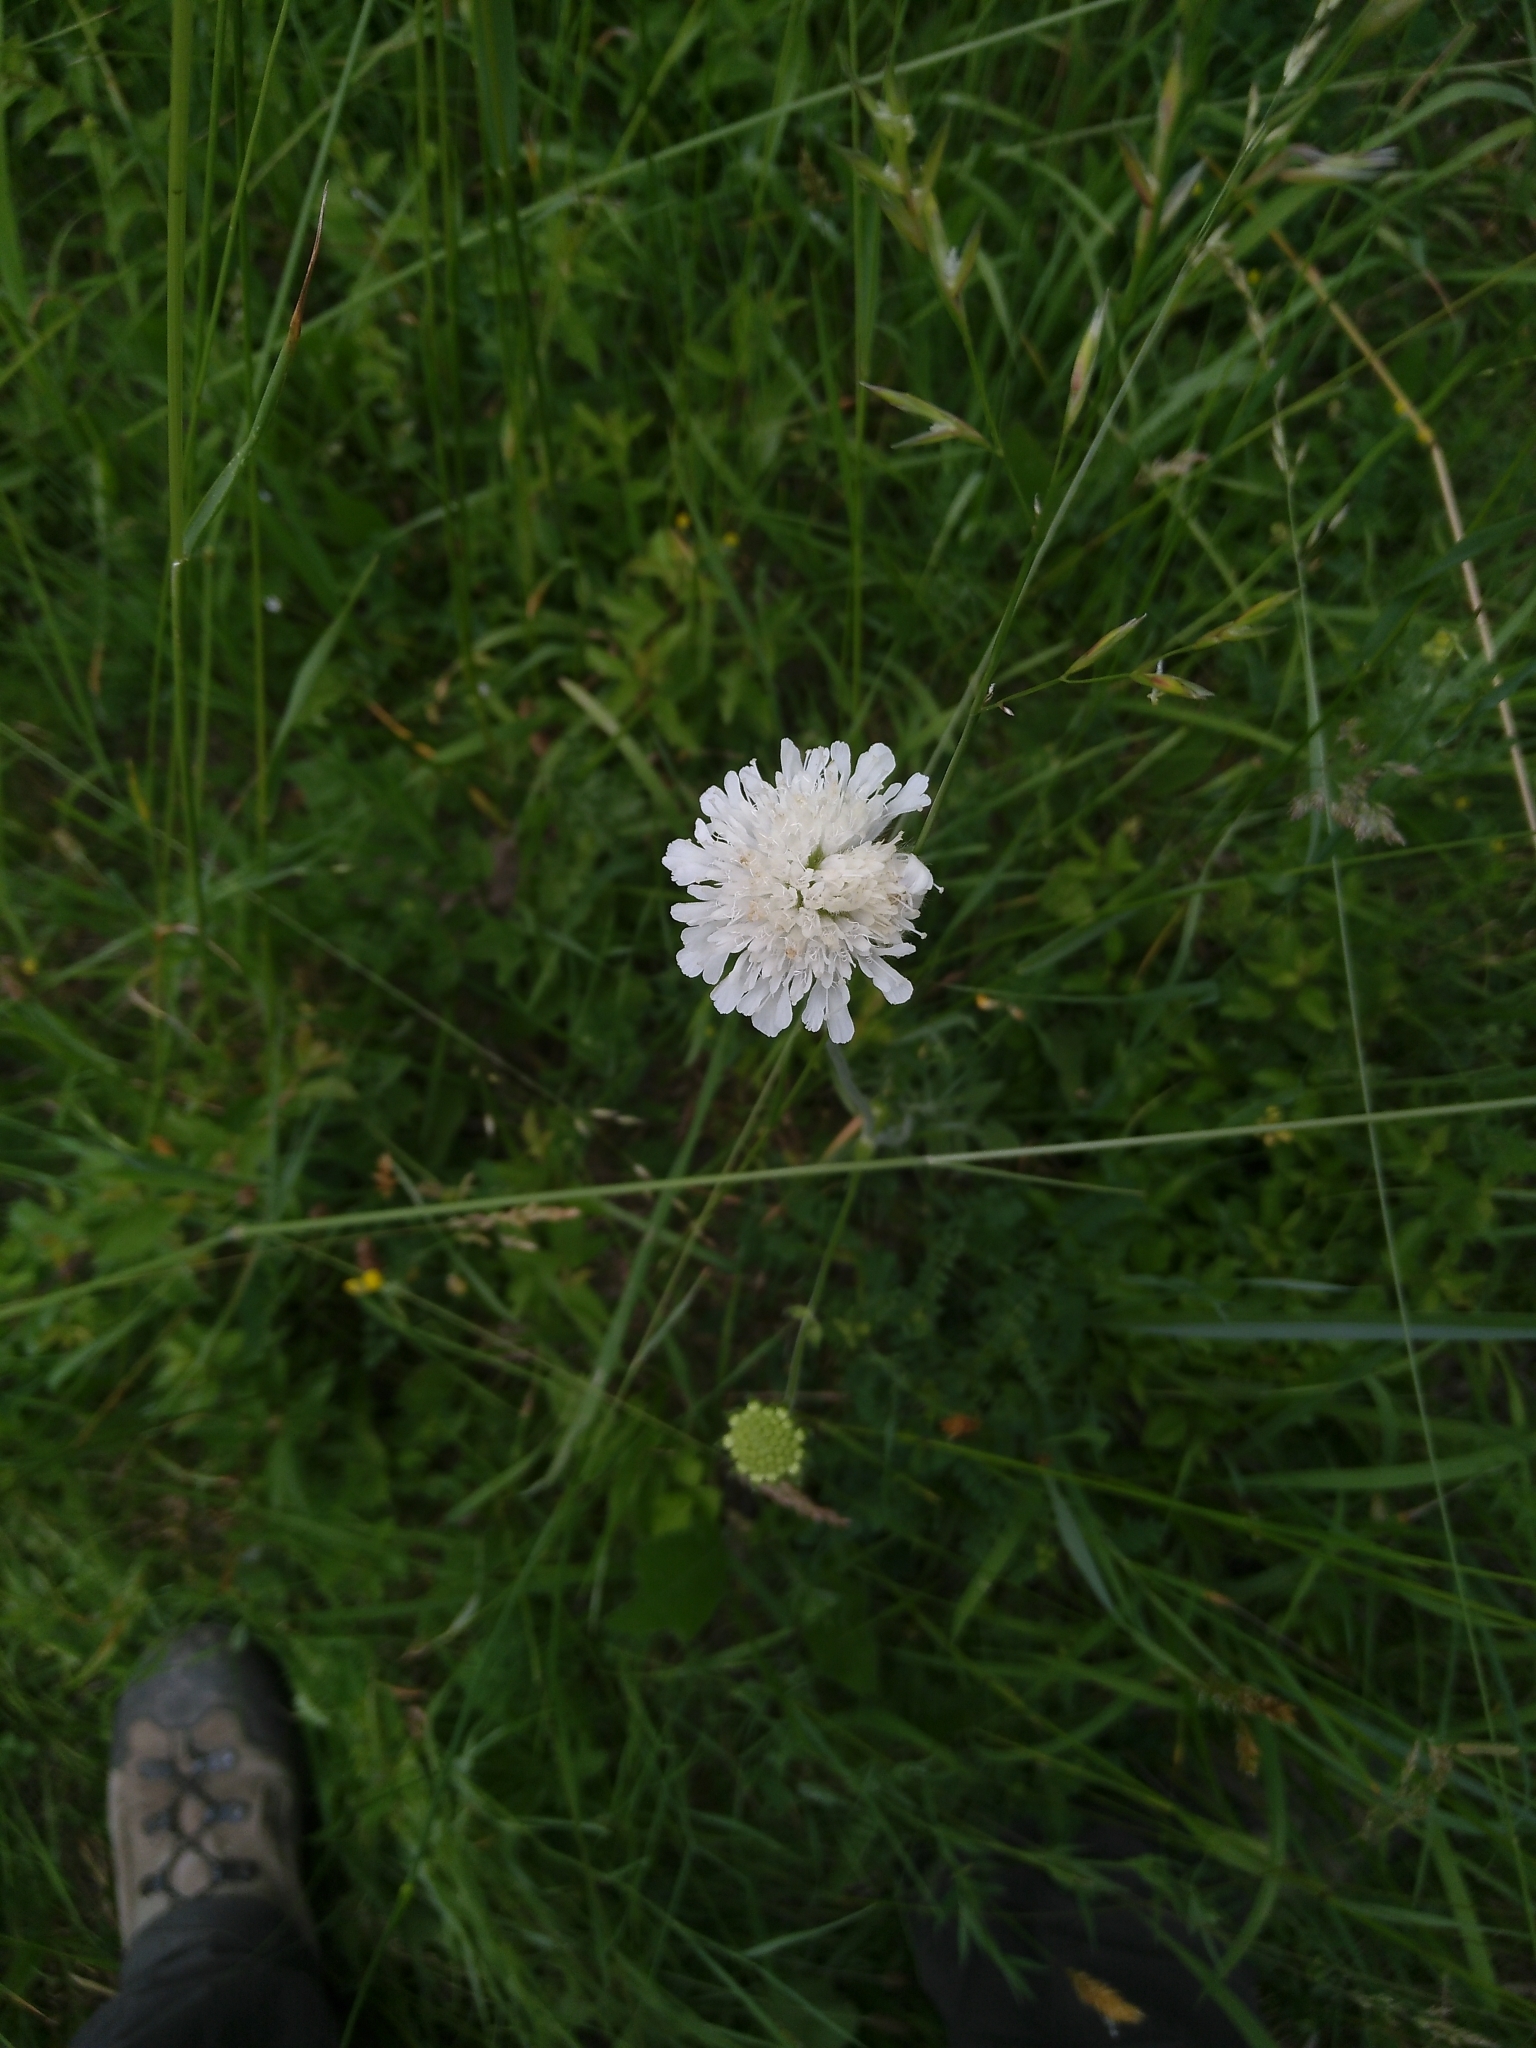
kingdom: Plantae
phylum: Tracheophyta
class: Magnoliopsida
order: Dipsacales
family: Caprifoliaceae
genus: Knautia
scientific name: Knautia arvensis
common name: Field scabiosa
